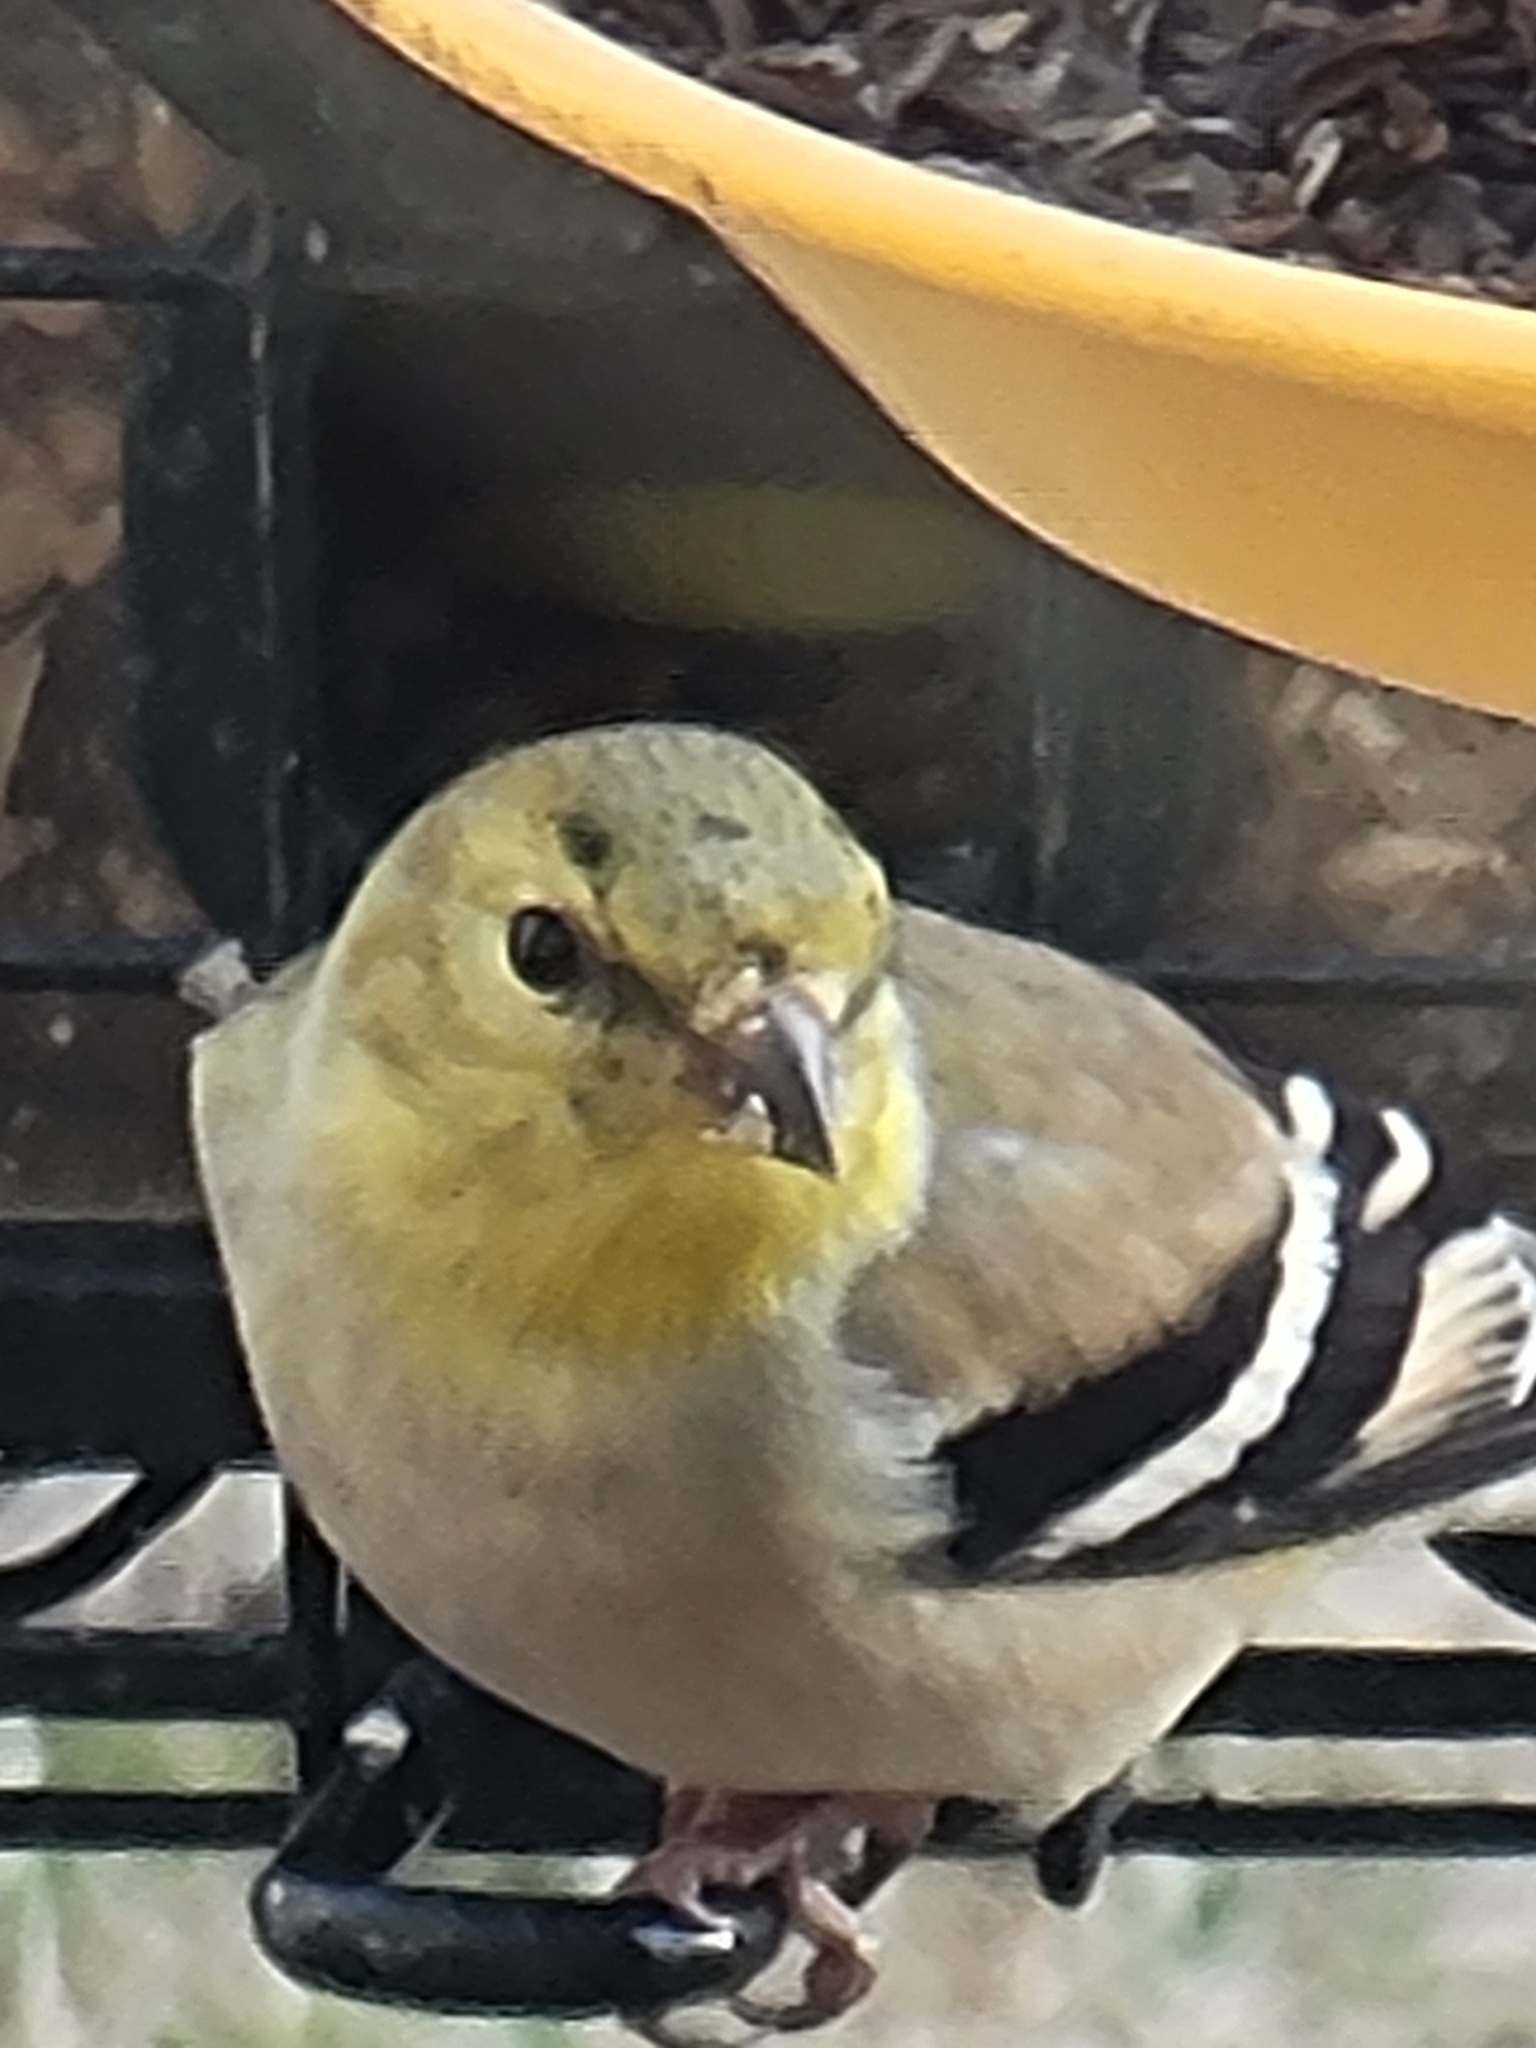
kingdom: Animalia
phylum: Chordata
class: Aves
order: Passeriformes
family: Fringillidae
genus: Spinus
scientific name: Spinus tristis
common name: American goldfinch
